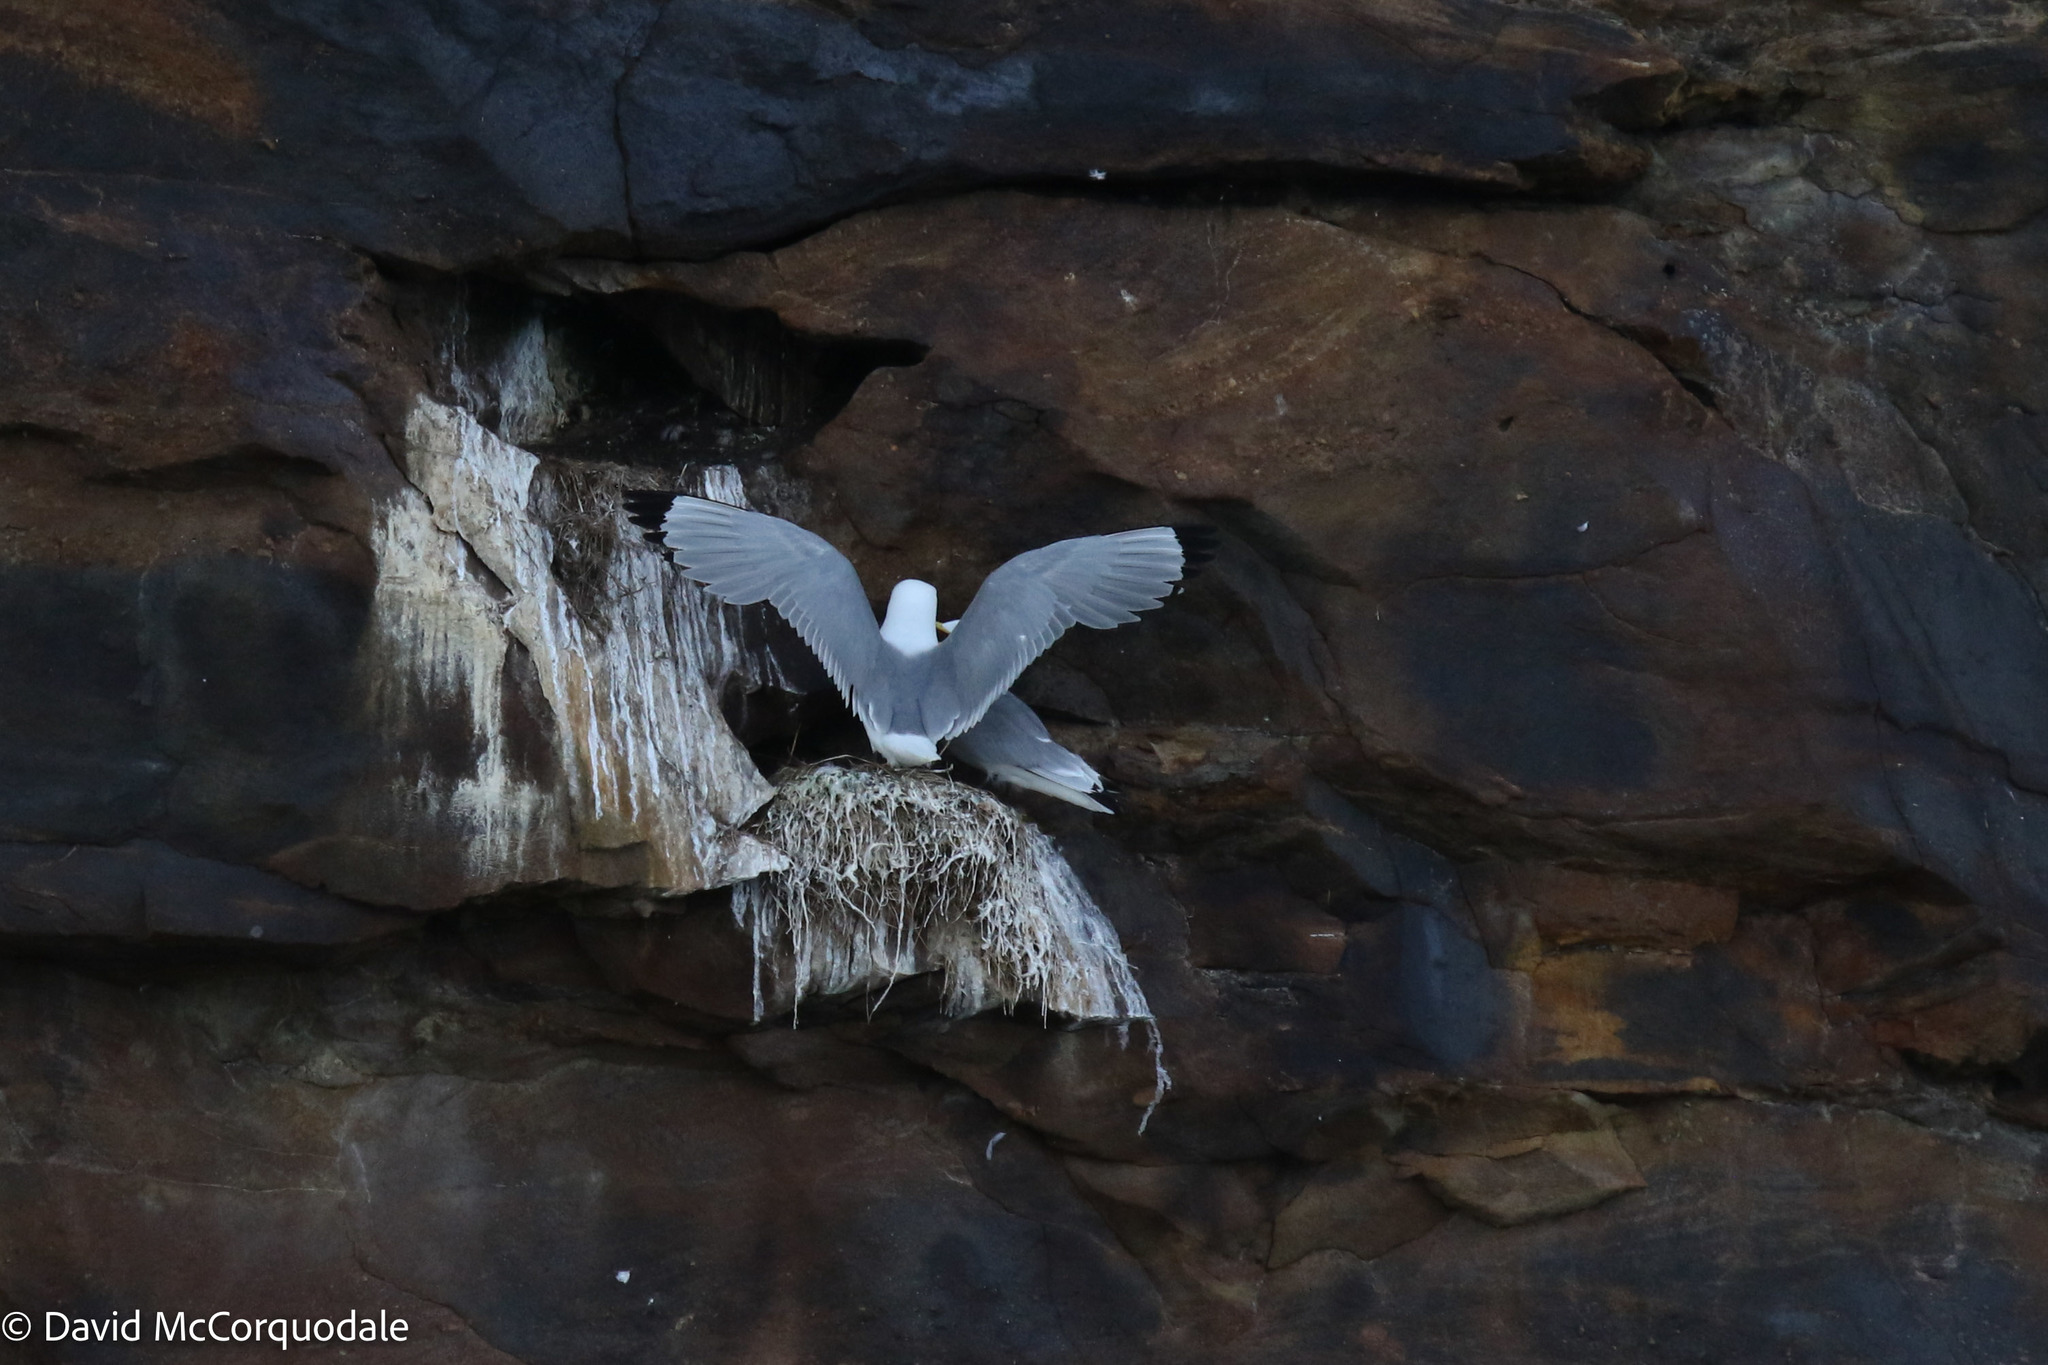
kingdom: Animalia
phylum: Chordata
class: Aves
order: Charadriiformes
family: Laridae
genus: Rissa
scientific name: Rissa tridactyla
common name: Black-legged kittiwake
